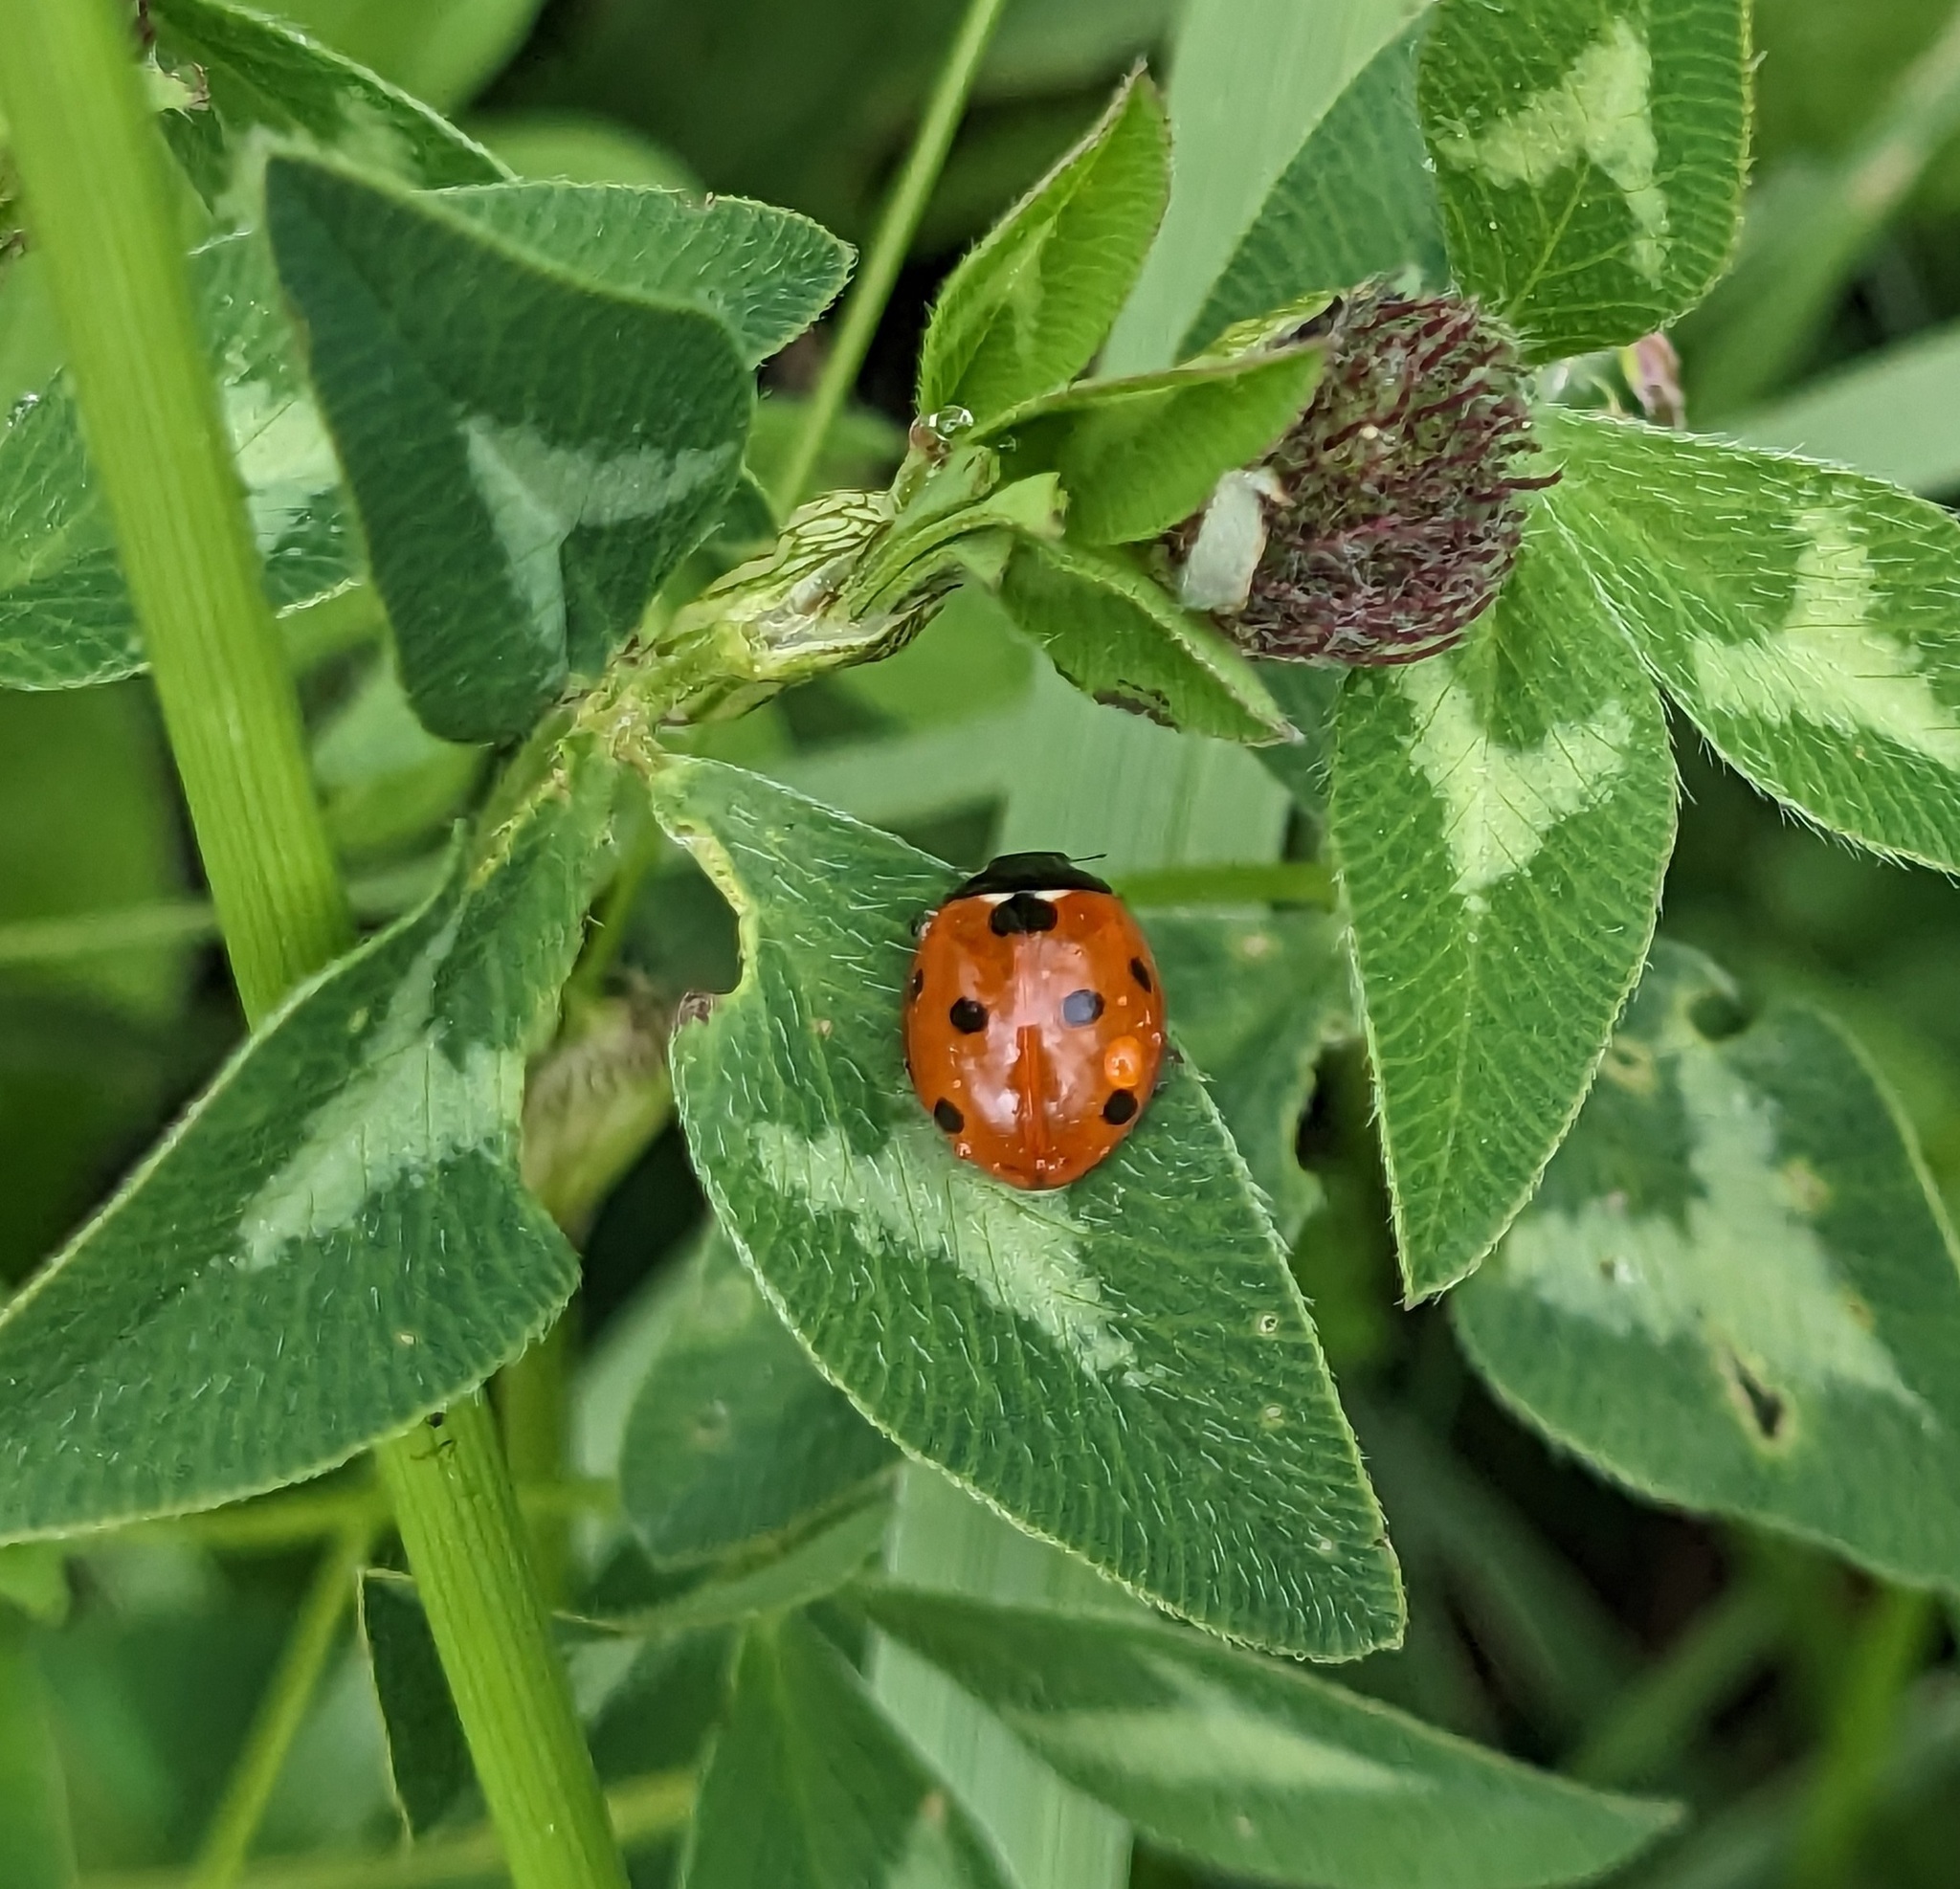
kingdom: Animalia
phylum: Arthropoda
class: Insecta
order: Coleoptera
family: Coccinellidae
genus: Coccinella
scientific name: Coccinella septempunctata
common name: Sevenspotted lady beetle
